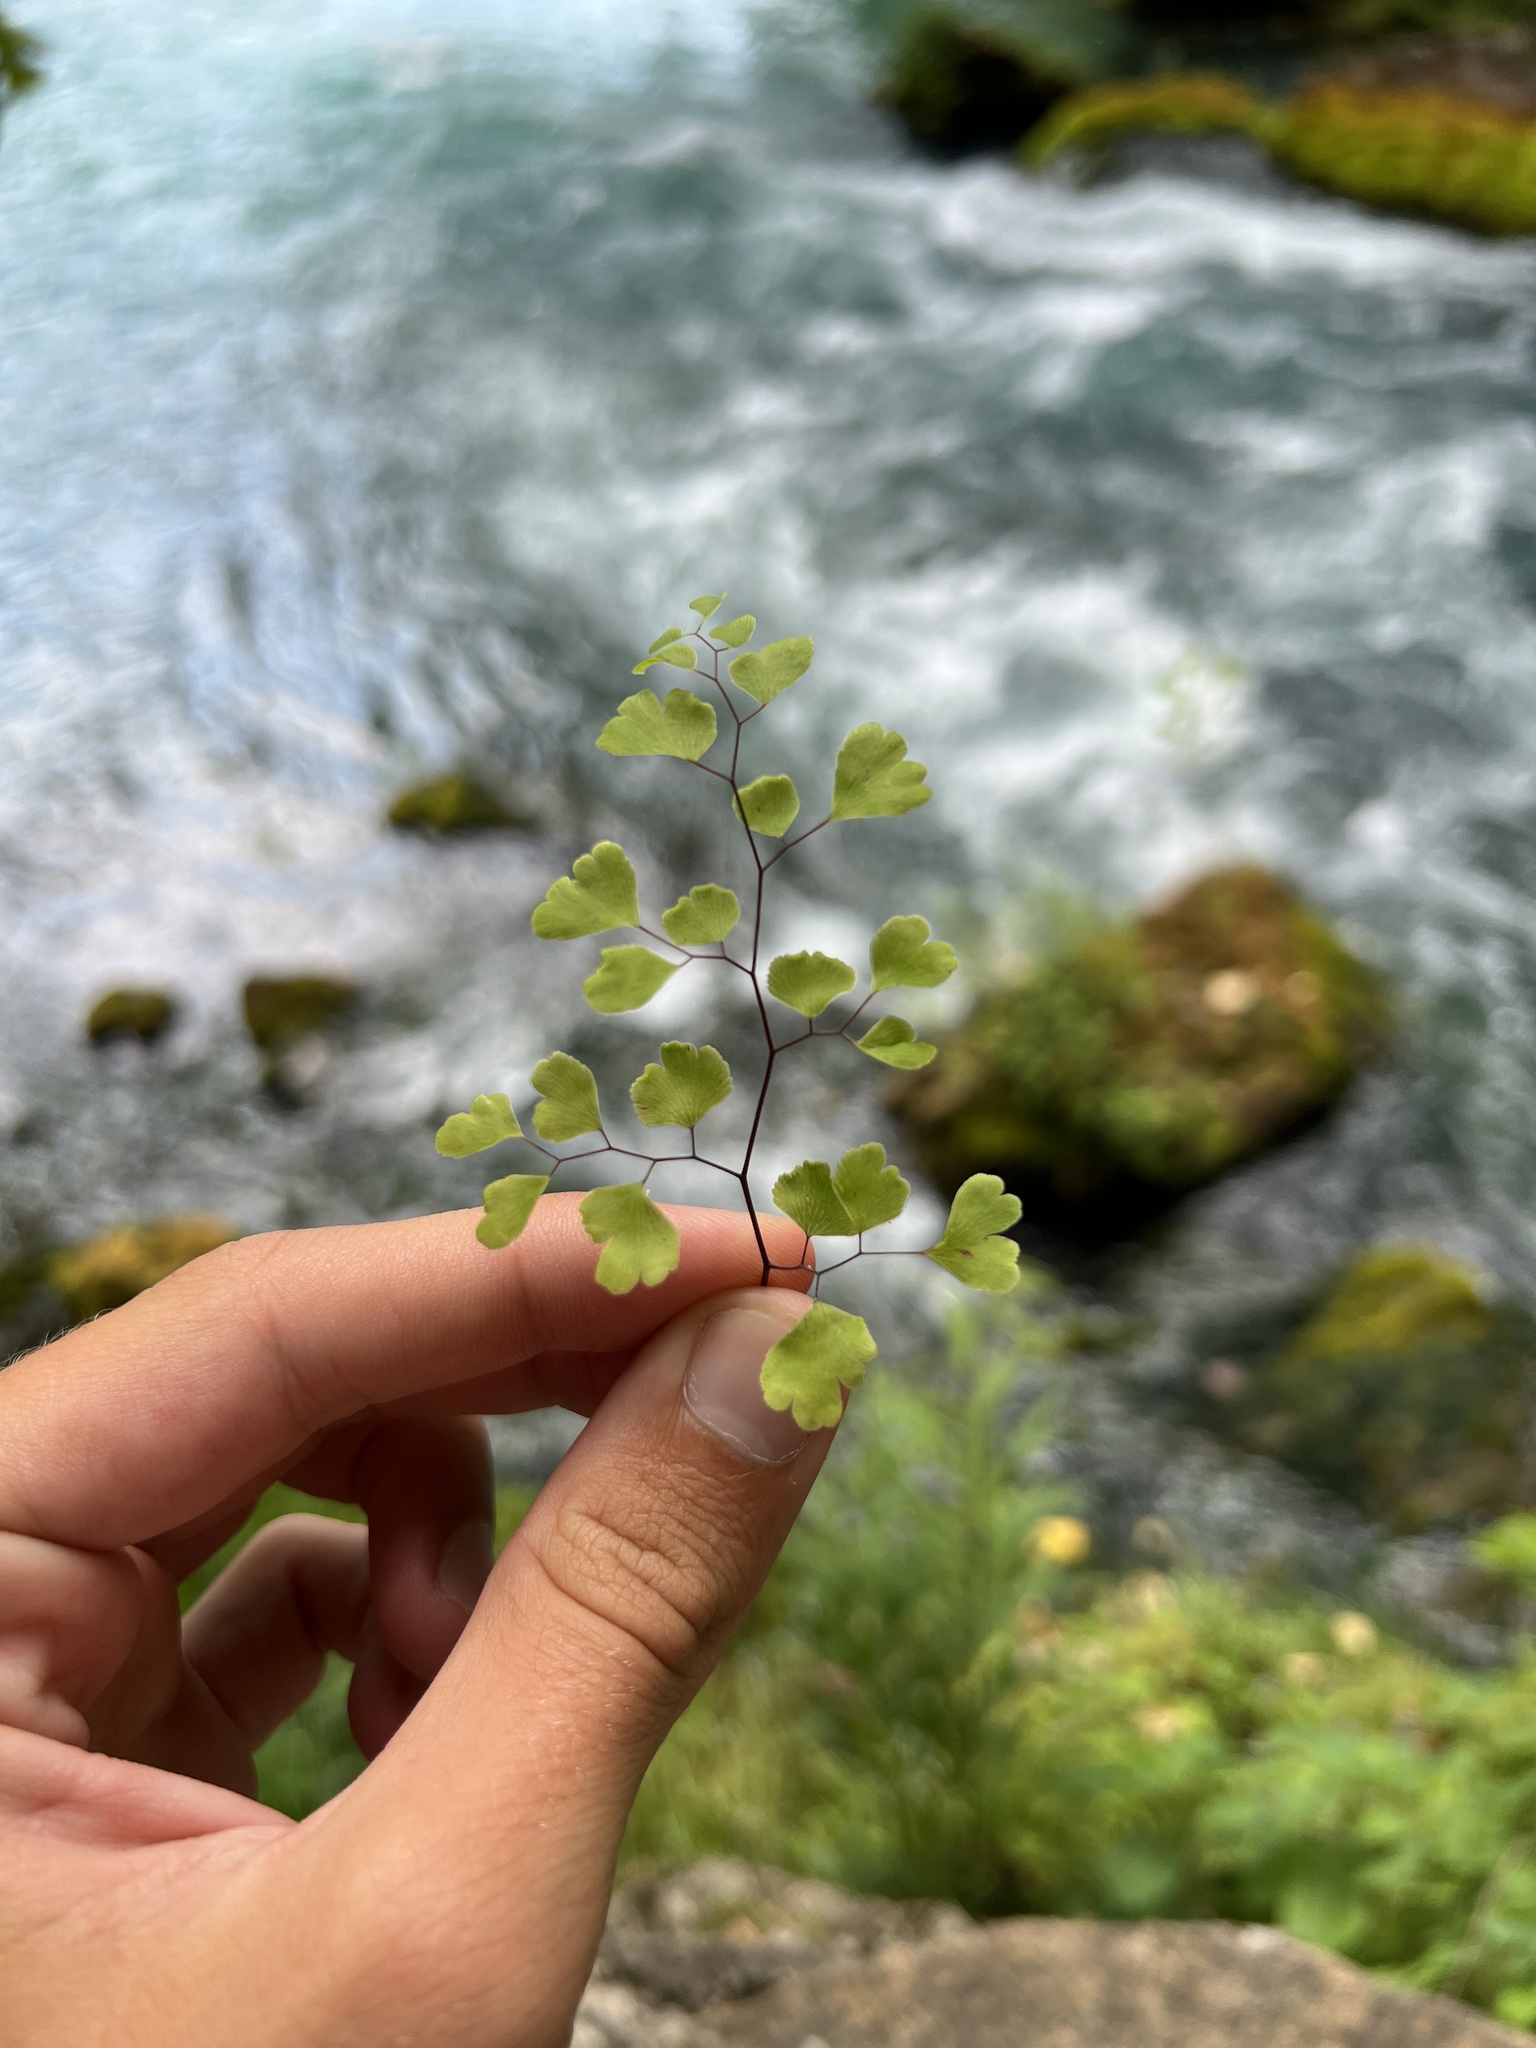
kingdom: Plantae
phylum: Tracheophyta
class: Polypodiopsida
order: Polypodiales
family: Pteridaceae
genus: Adiantum
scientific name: Adiantum capillus-veneris
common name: Maidenhair fern
